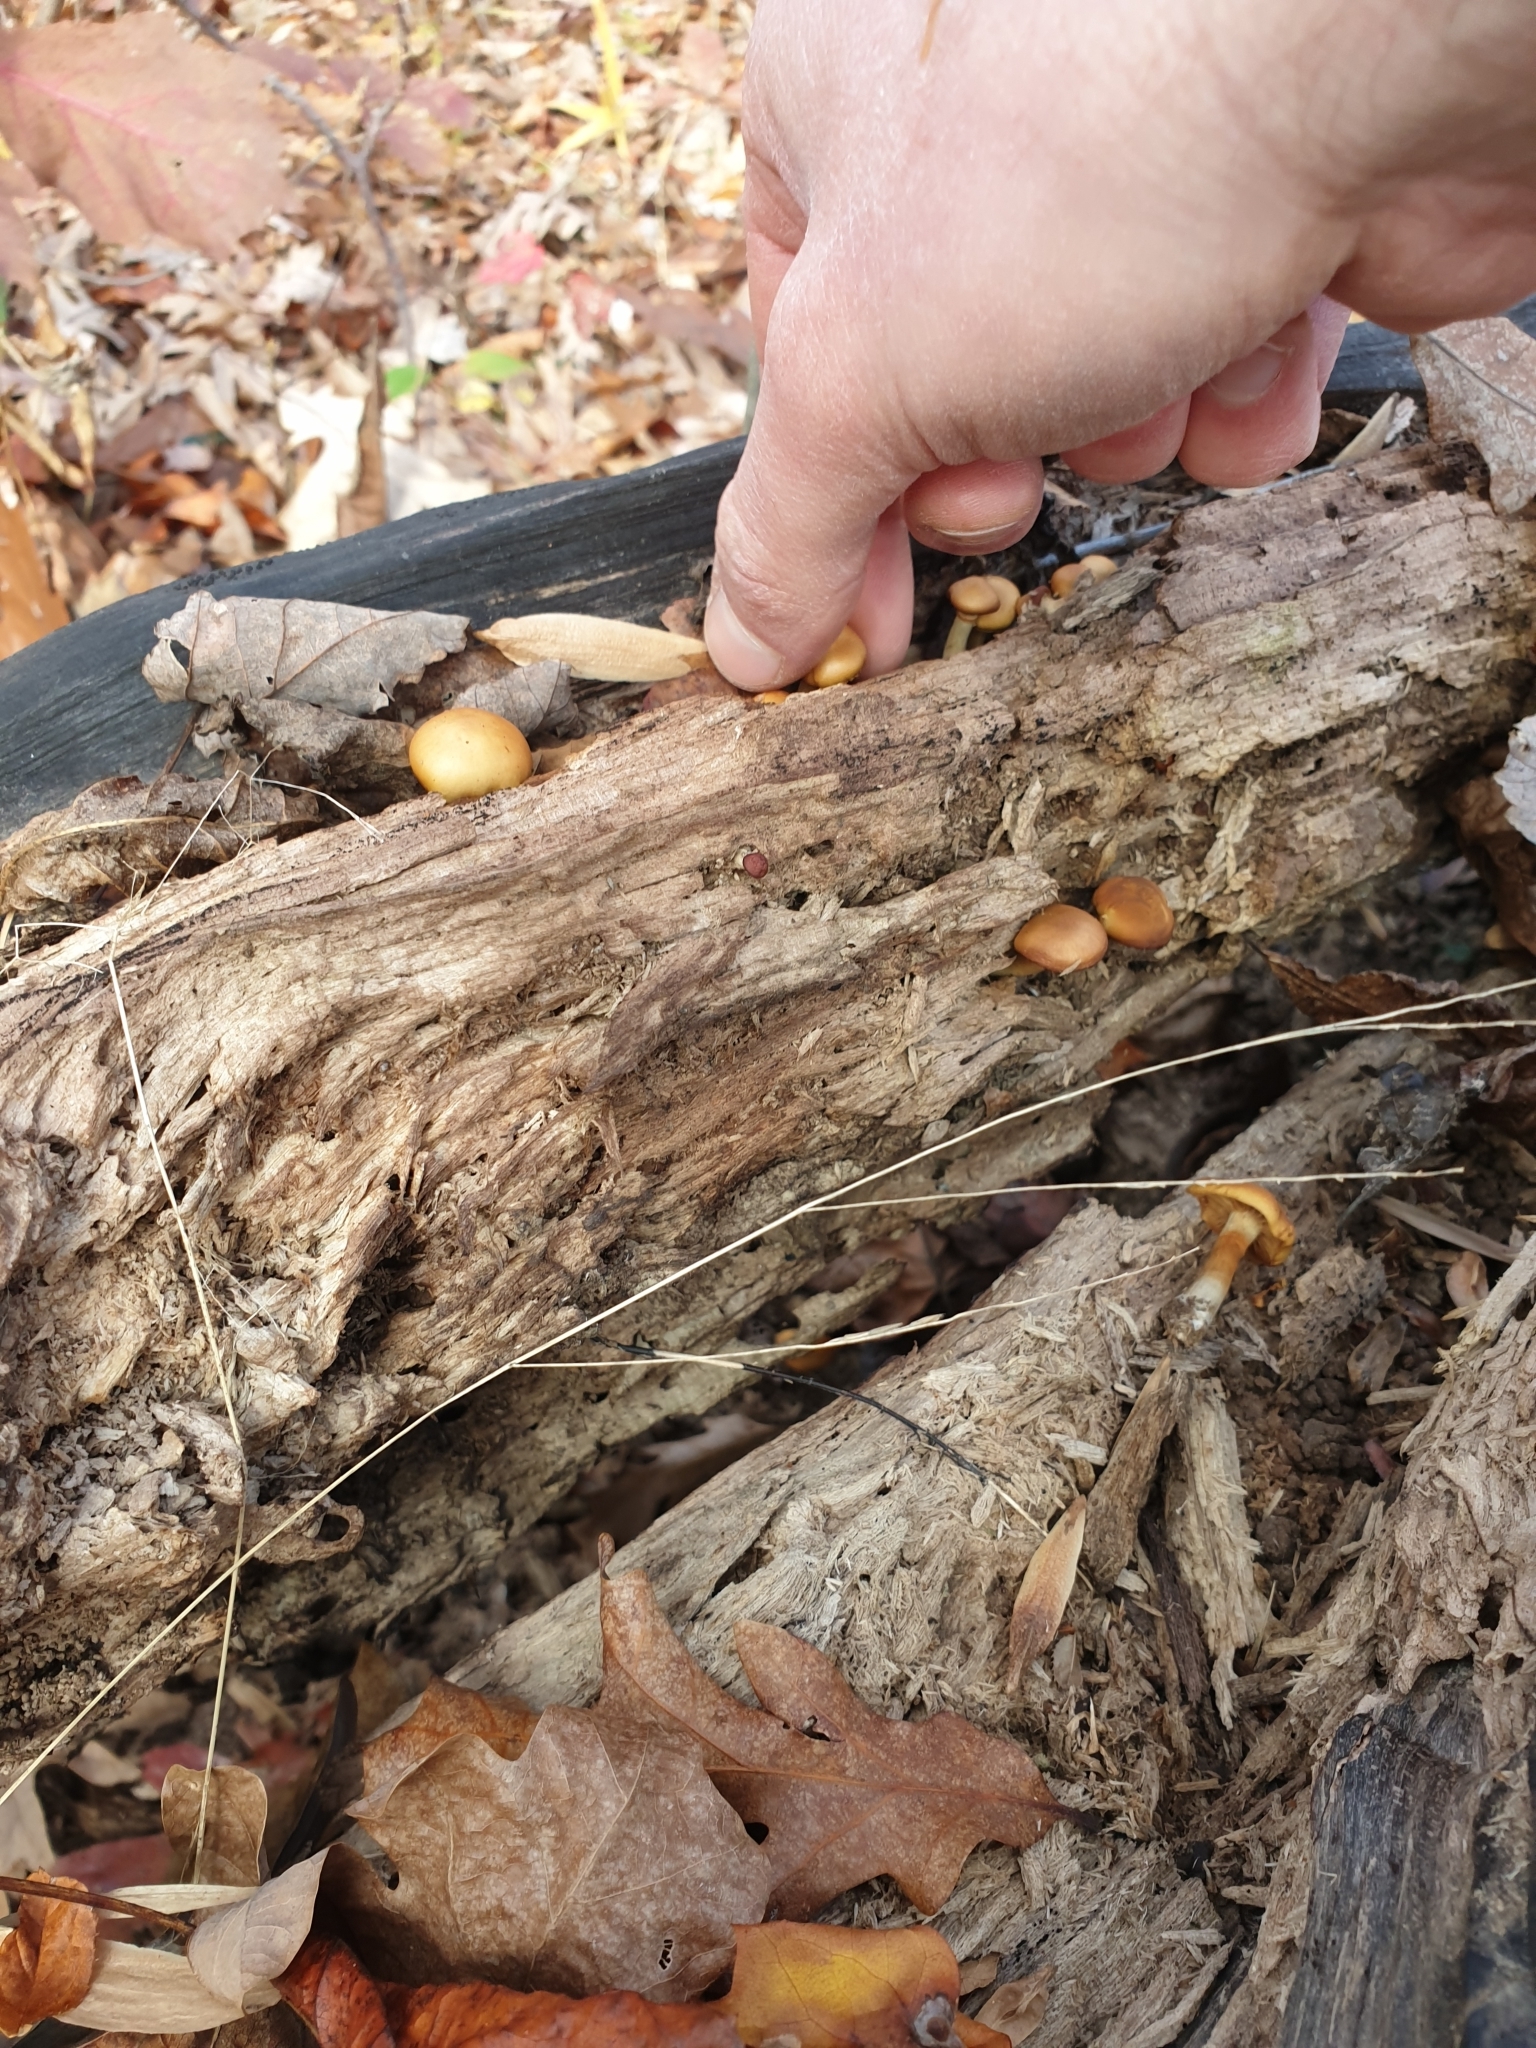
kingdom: Fungi
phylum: Basidiomycota
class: Agaricomycetes
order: Agaricales
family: Hymenogastraceae
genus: Galerina
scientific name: Galerina marginata
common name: Funeral bell
